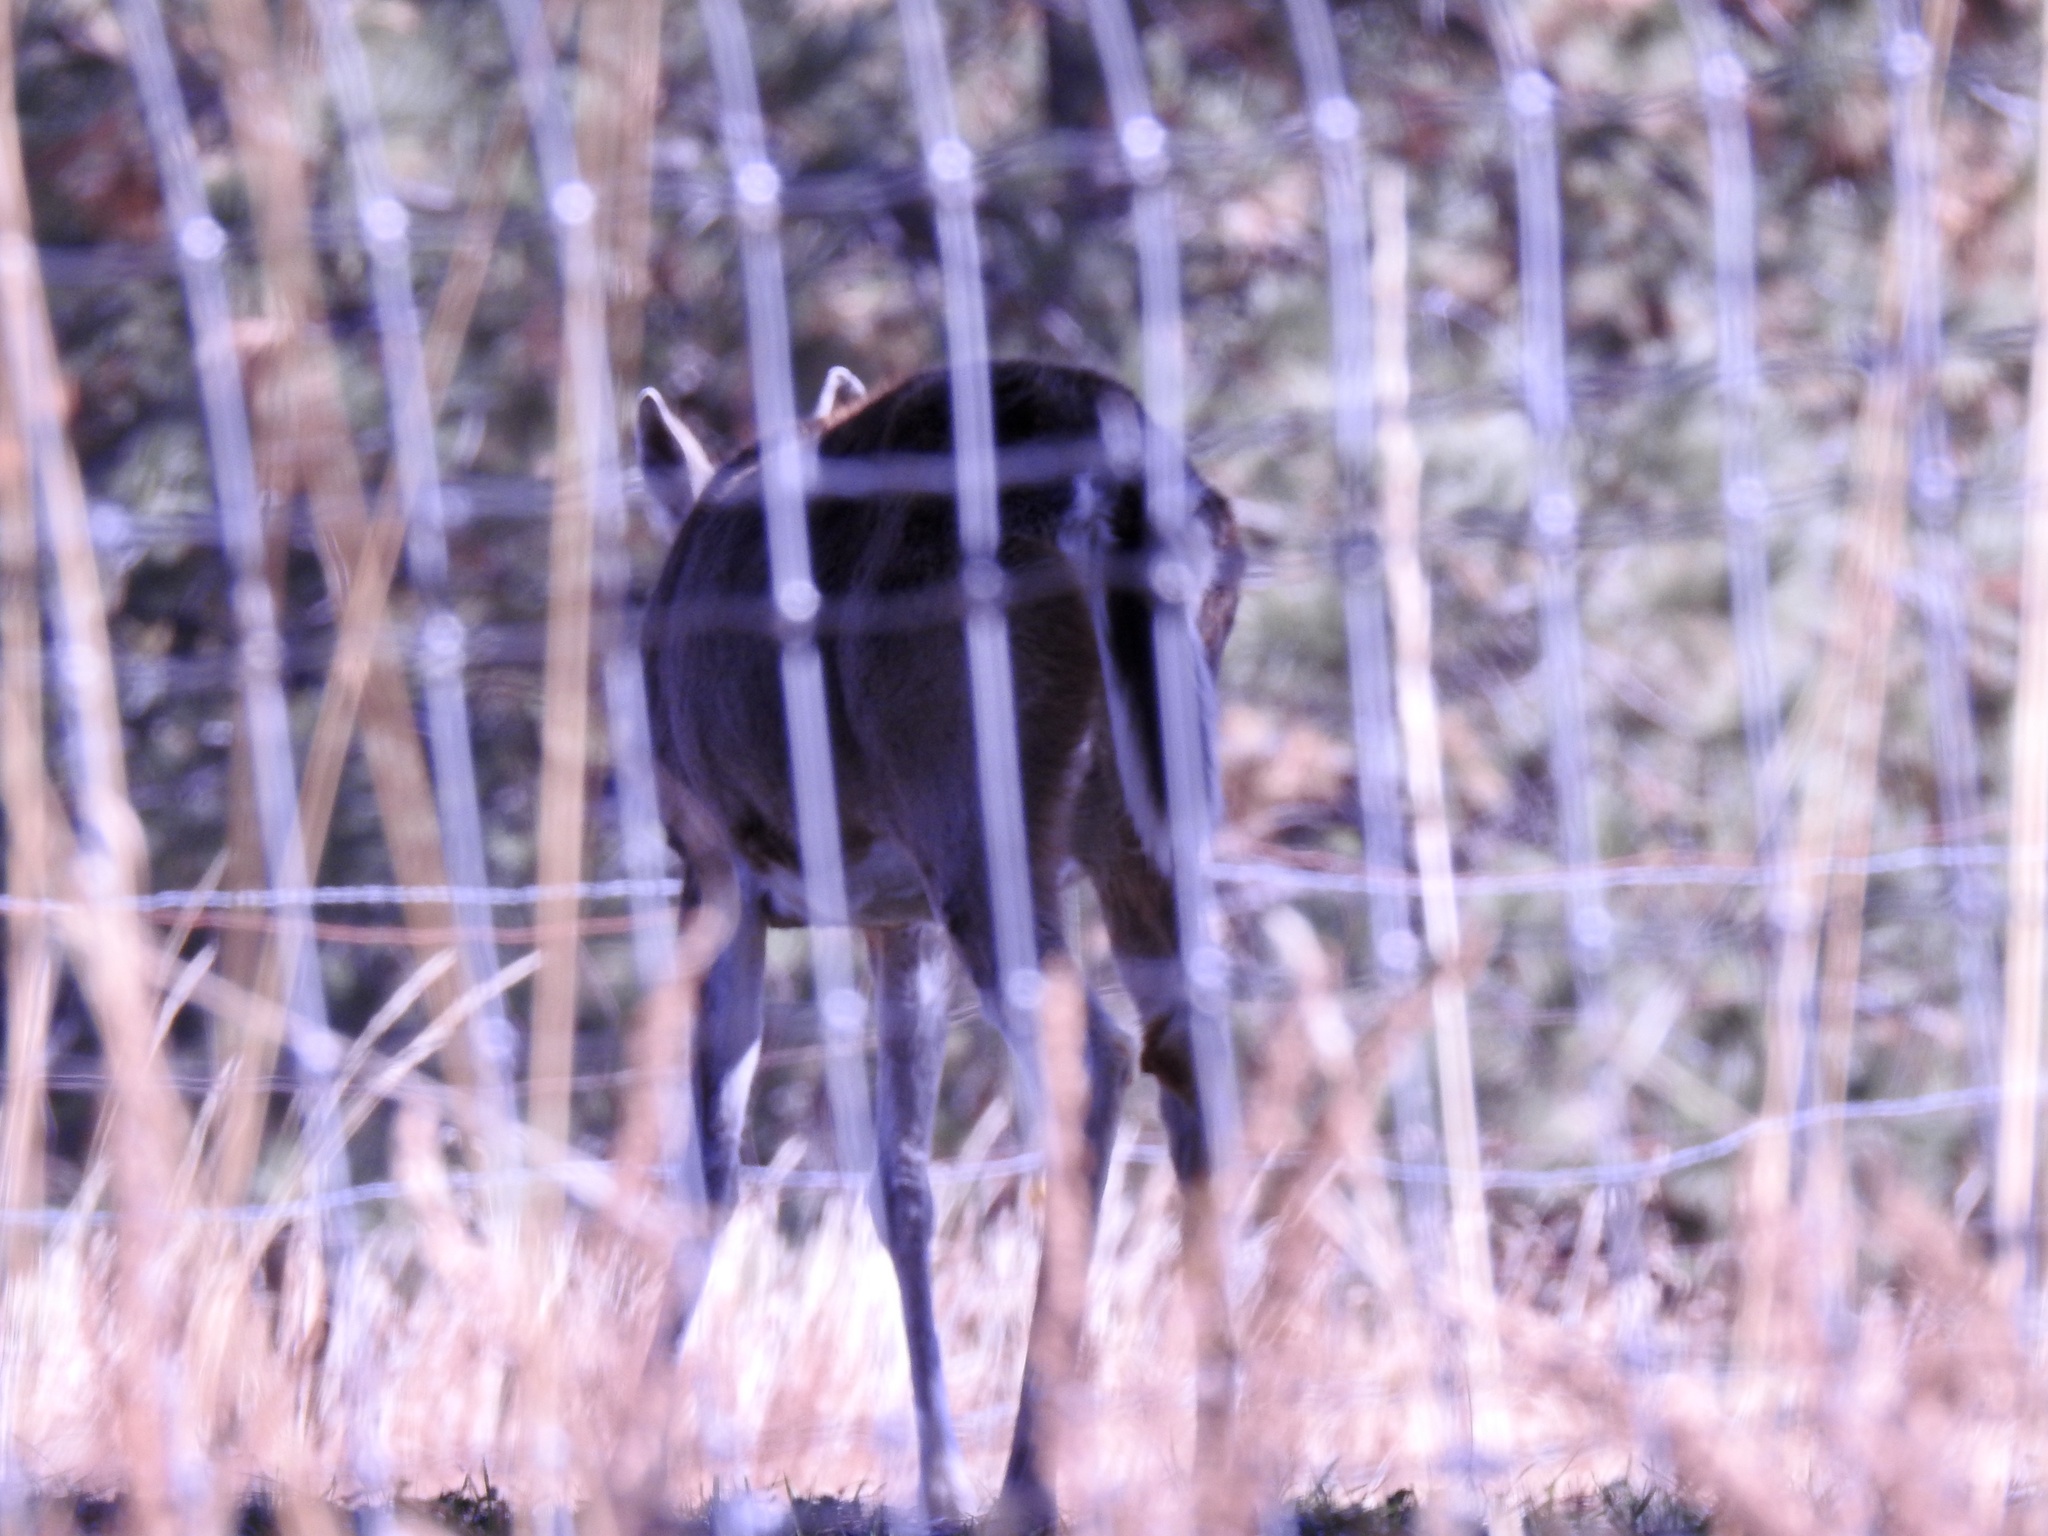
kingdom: Animalia
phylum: Chordata
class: Mammalia
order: Artiodactyla
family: Cervidae
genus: Odocoileus
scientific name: Odocoileus virginianus
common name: White-tailed deer
